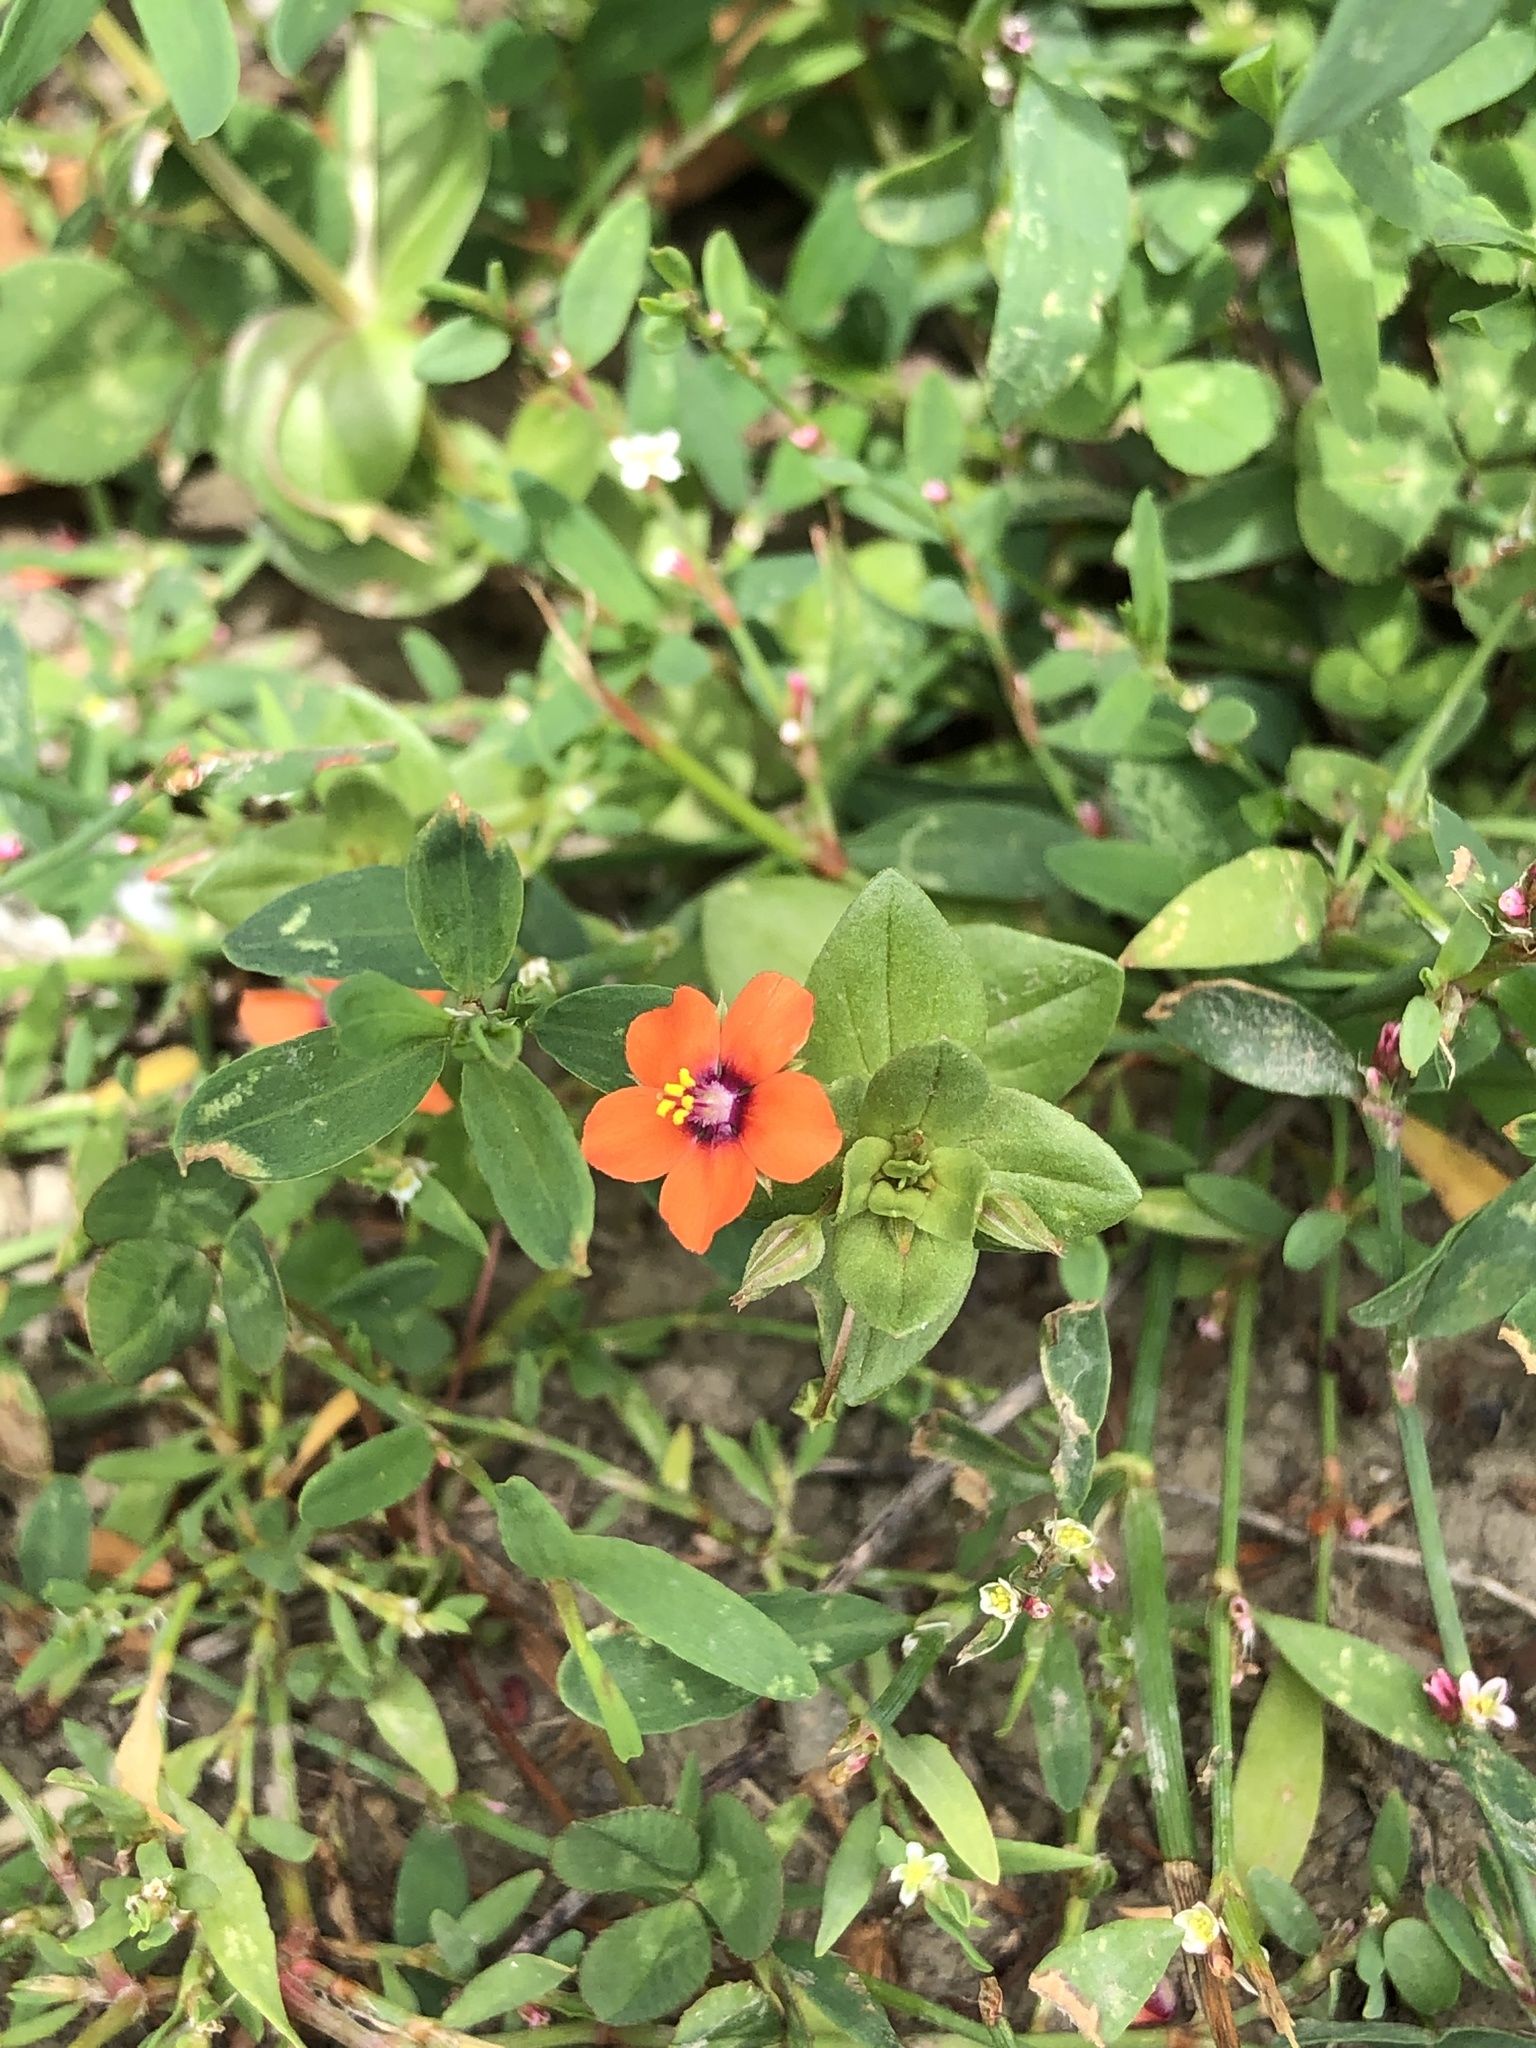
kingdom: Plantae
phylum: Tracheophyta
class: Magnoliopsida
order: Ericales
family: Primulaceae
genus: Lysimachia
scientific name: Lysimachia arvensis
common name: Scarlet pimpernel
